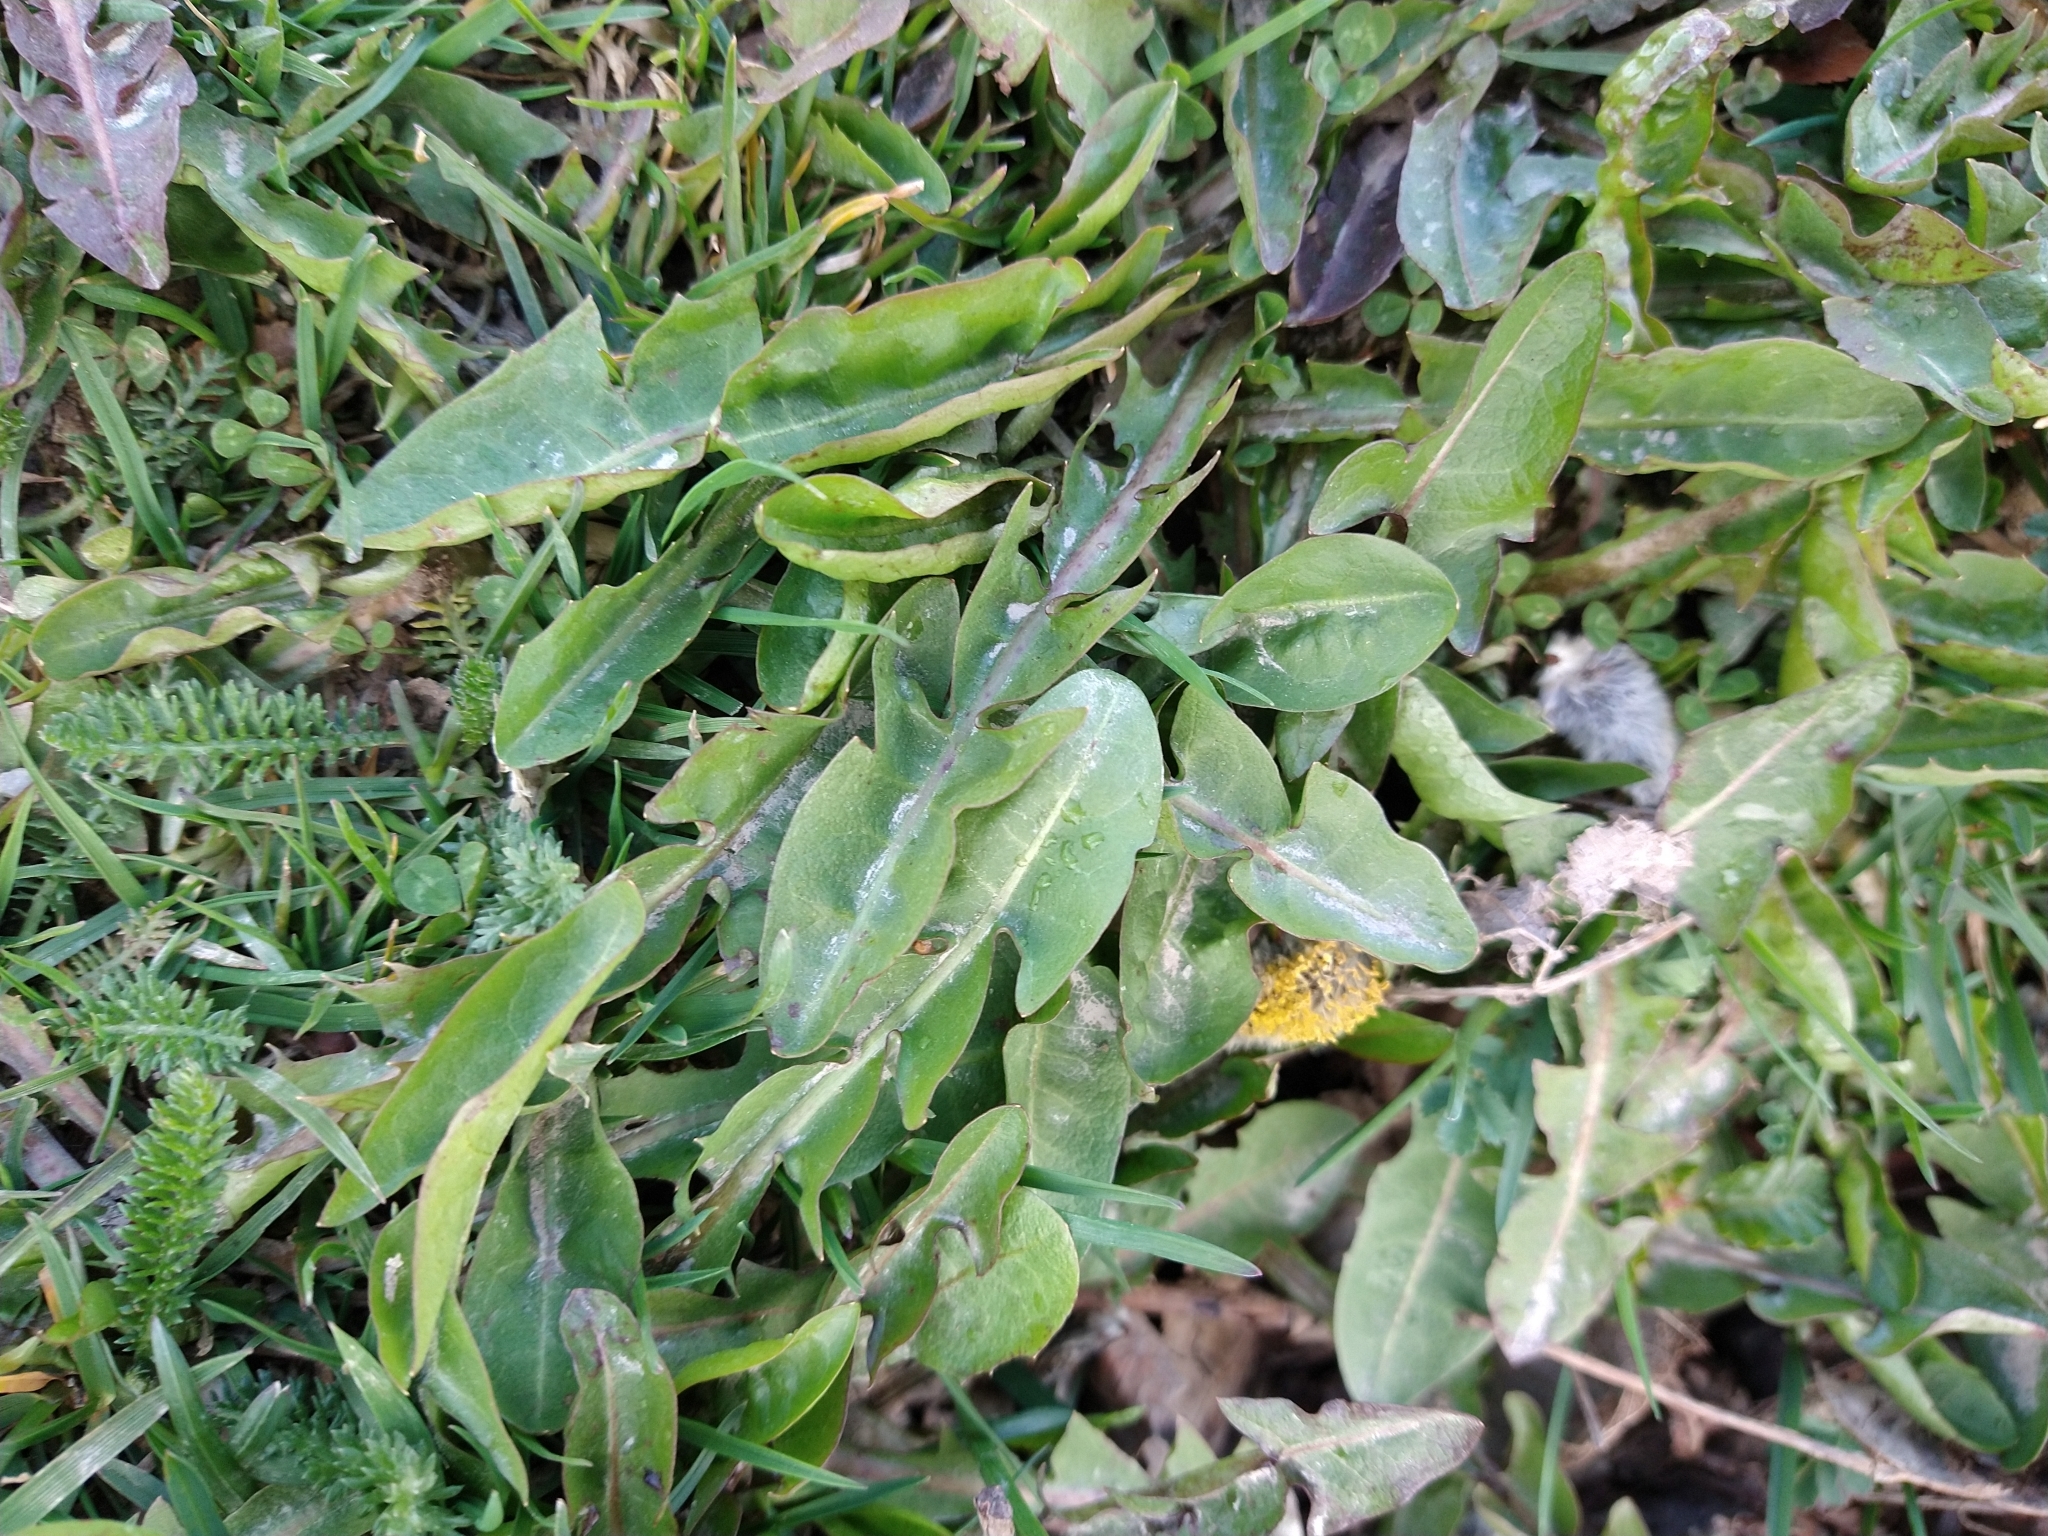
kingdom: Plantae
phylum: Tracheophyta
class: Magnoliopsida
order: Asterales
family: Asteraceae
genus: Taraxacum
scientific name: Taraxacum officinale
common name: Common dandelion
